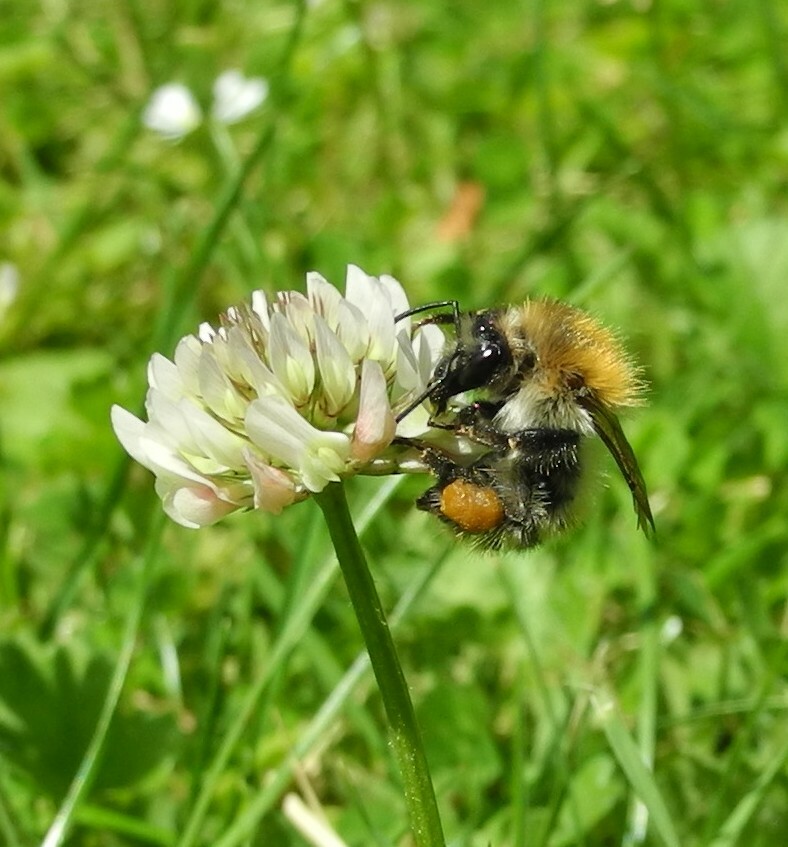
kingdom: Animalia
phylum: Arthropoda
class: Insecta
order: Hymenoptera
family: Apidae
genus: Bombus
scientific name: Bombus pascuorum
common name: Common carder bee
